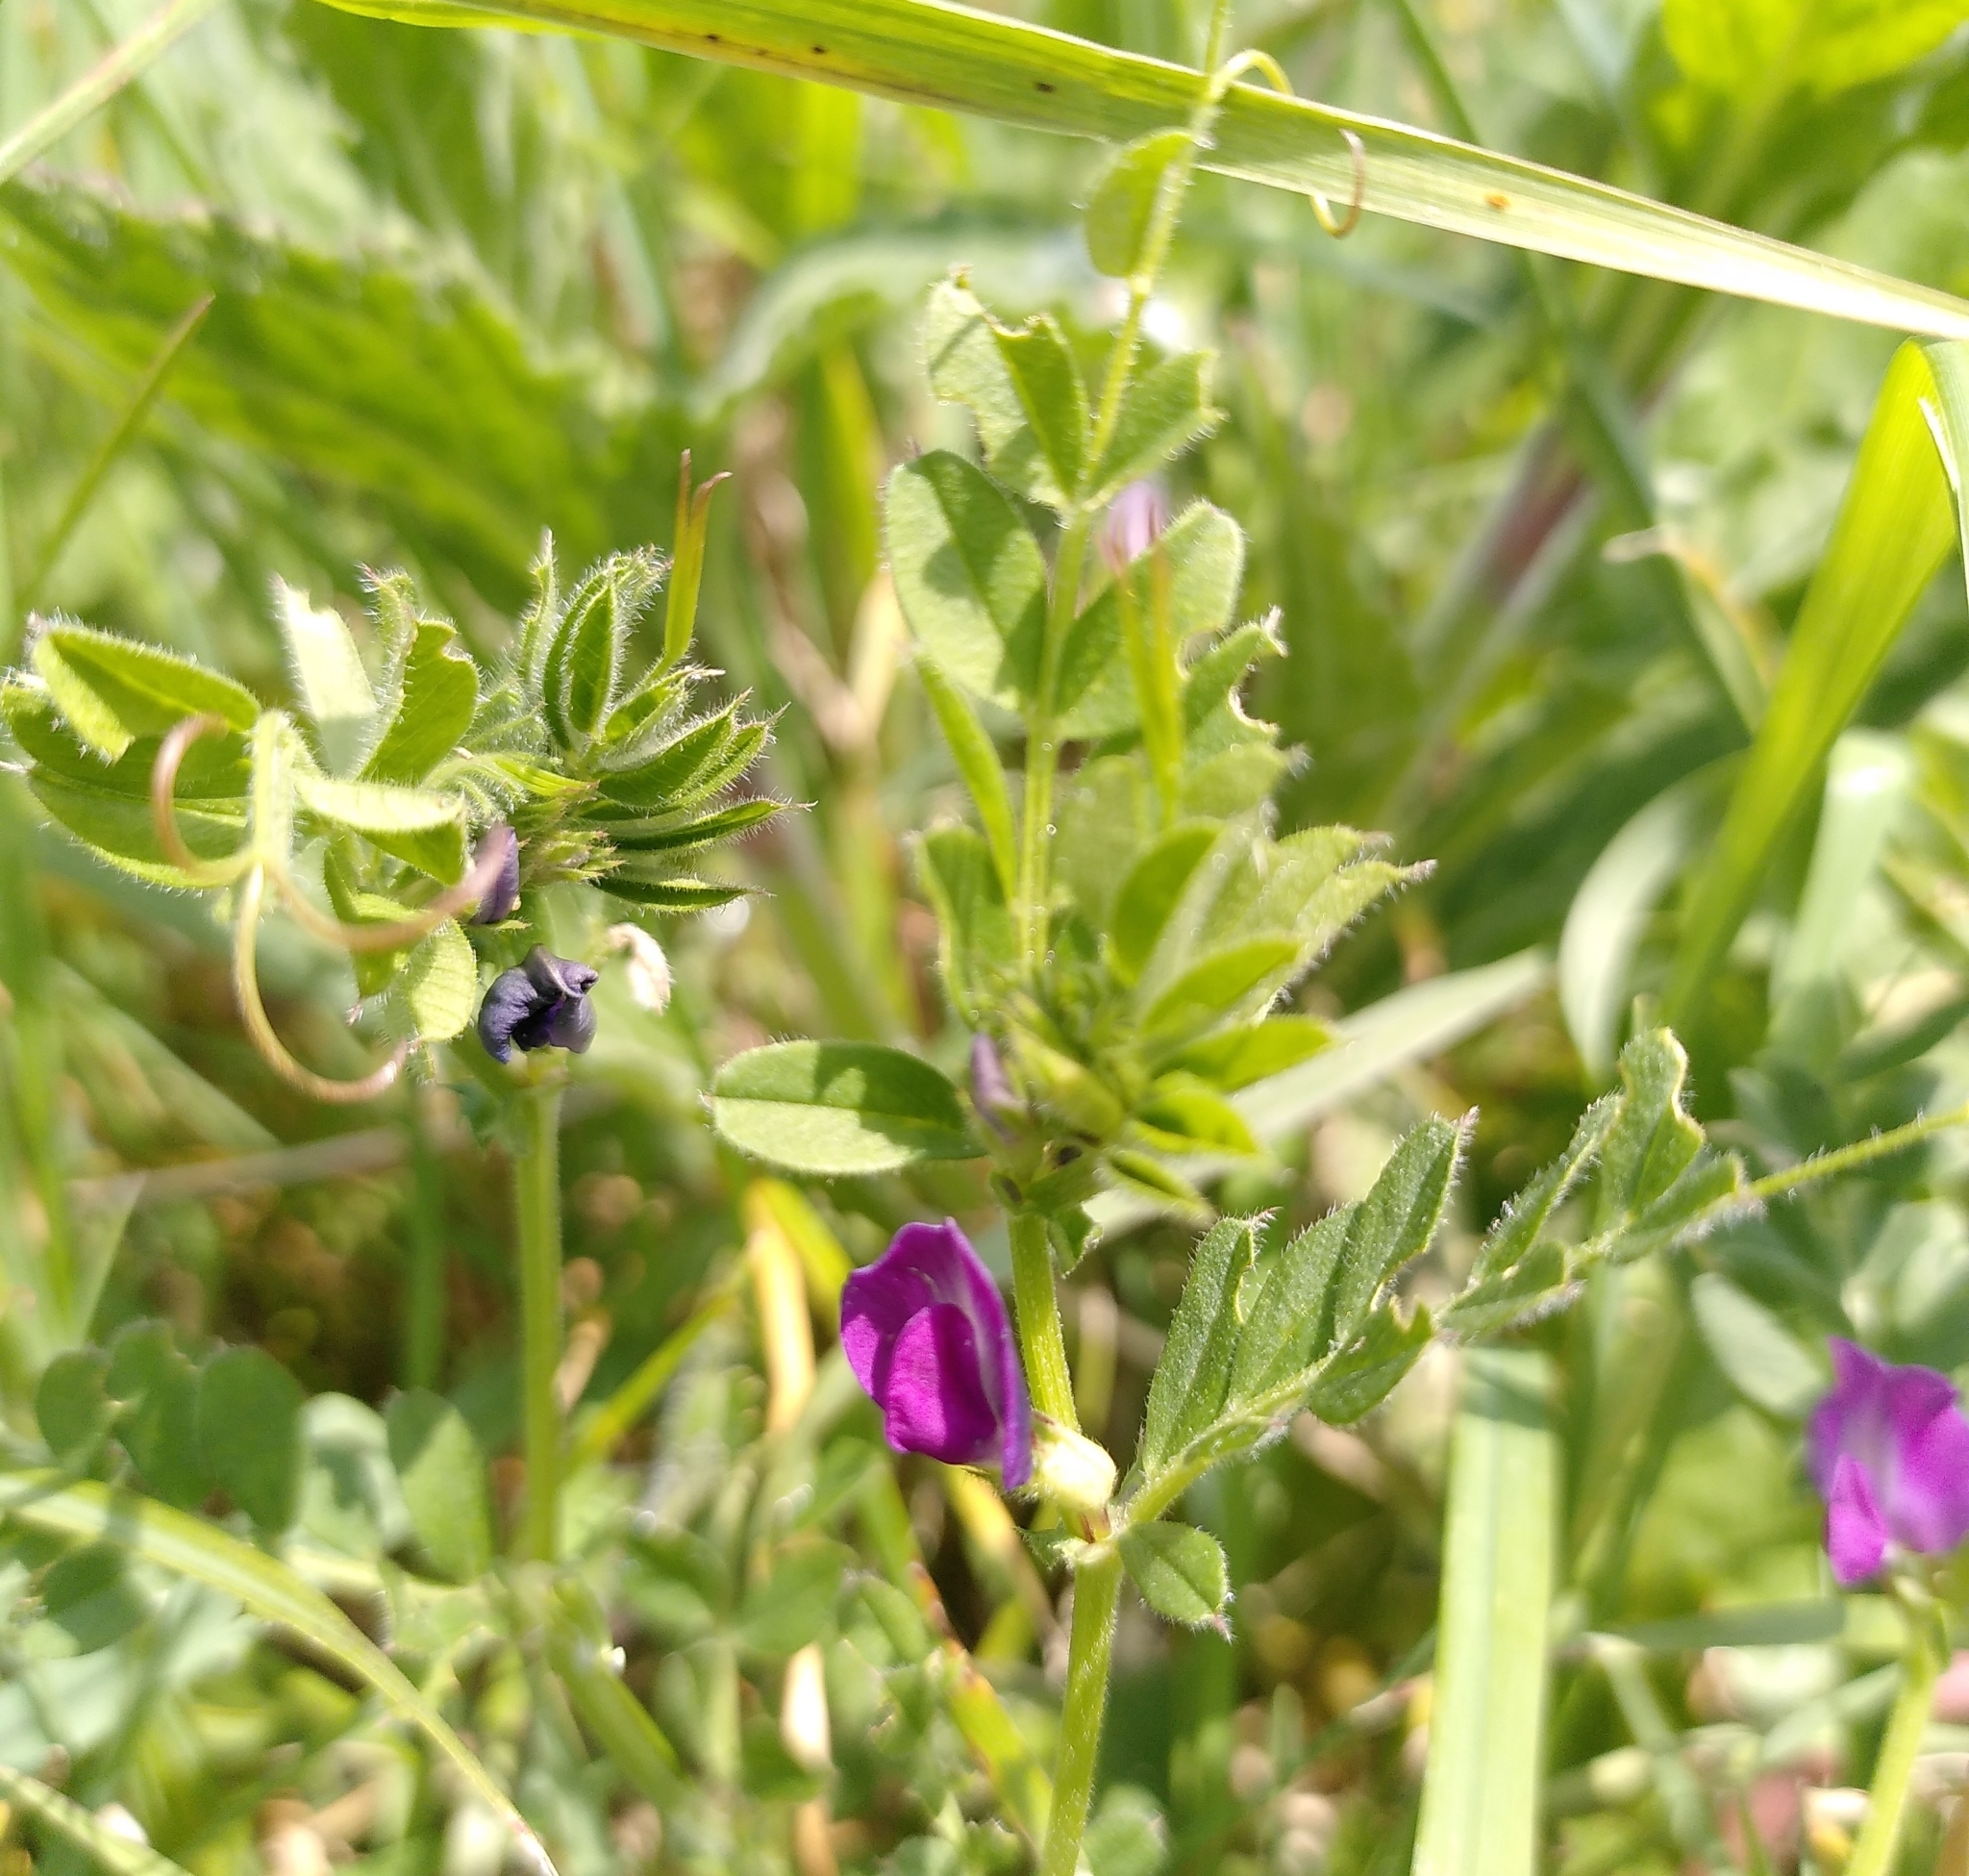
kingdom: Plantae
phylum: Tracheophyta
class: Magnoliopsida
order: Fabales
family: Fabaceae
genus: Vicia
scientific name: Vicia sativa
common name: Garden vetch
